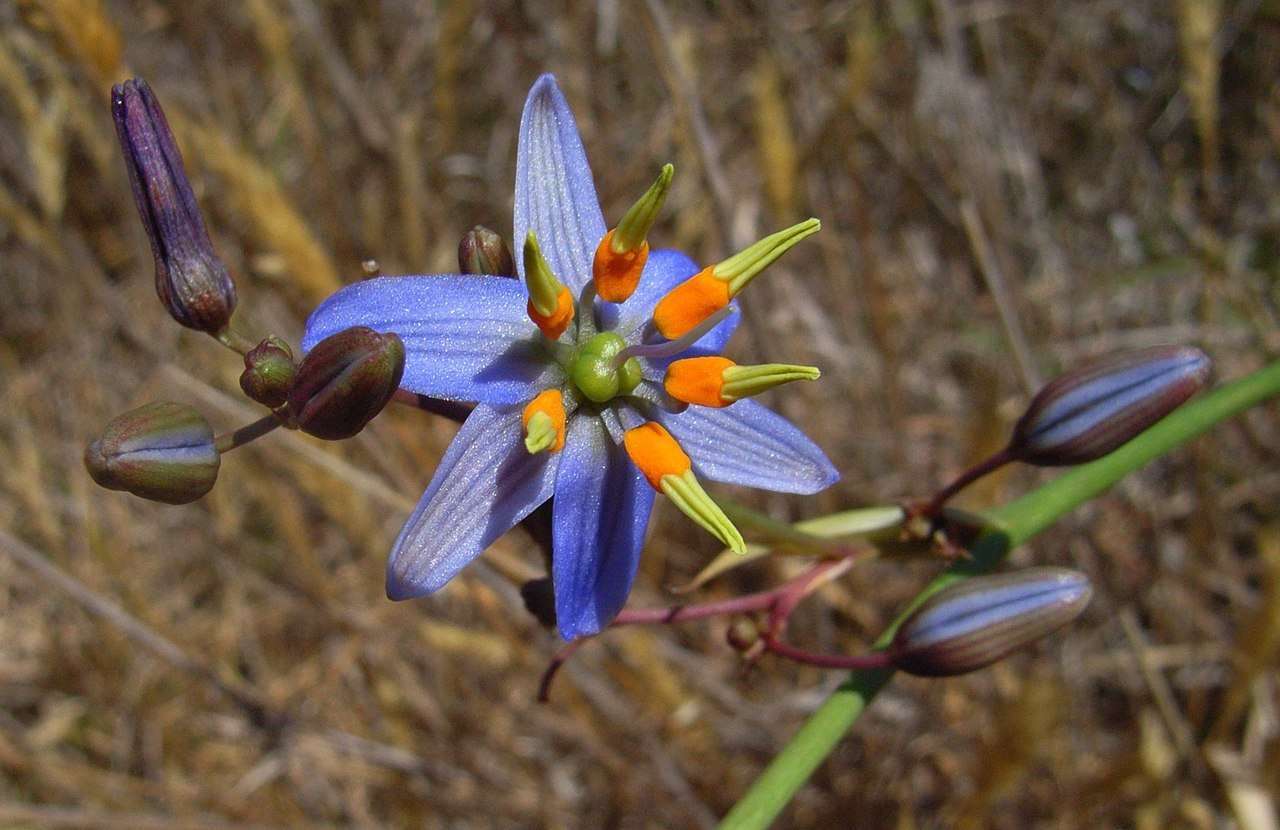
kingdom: Plantae
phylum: Tracheophyta
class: Liliopsida
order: Asparagales
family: Asphodelaceae
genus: Dianella
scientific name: Dianella amoena
